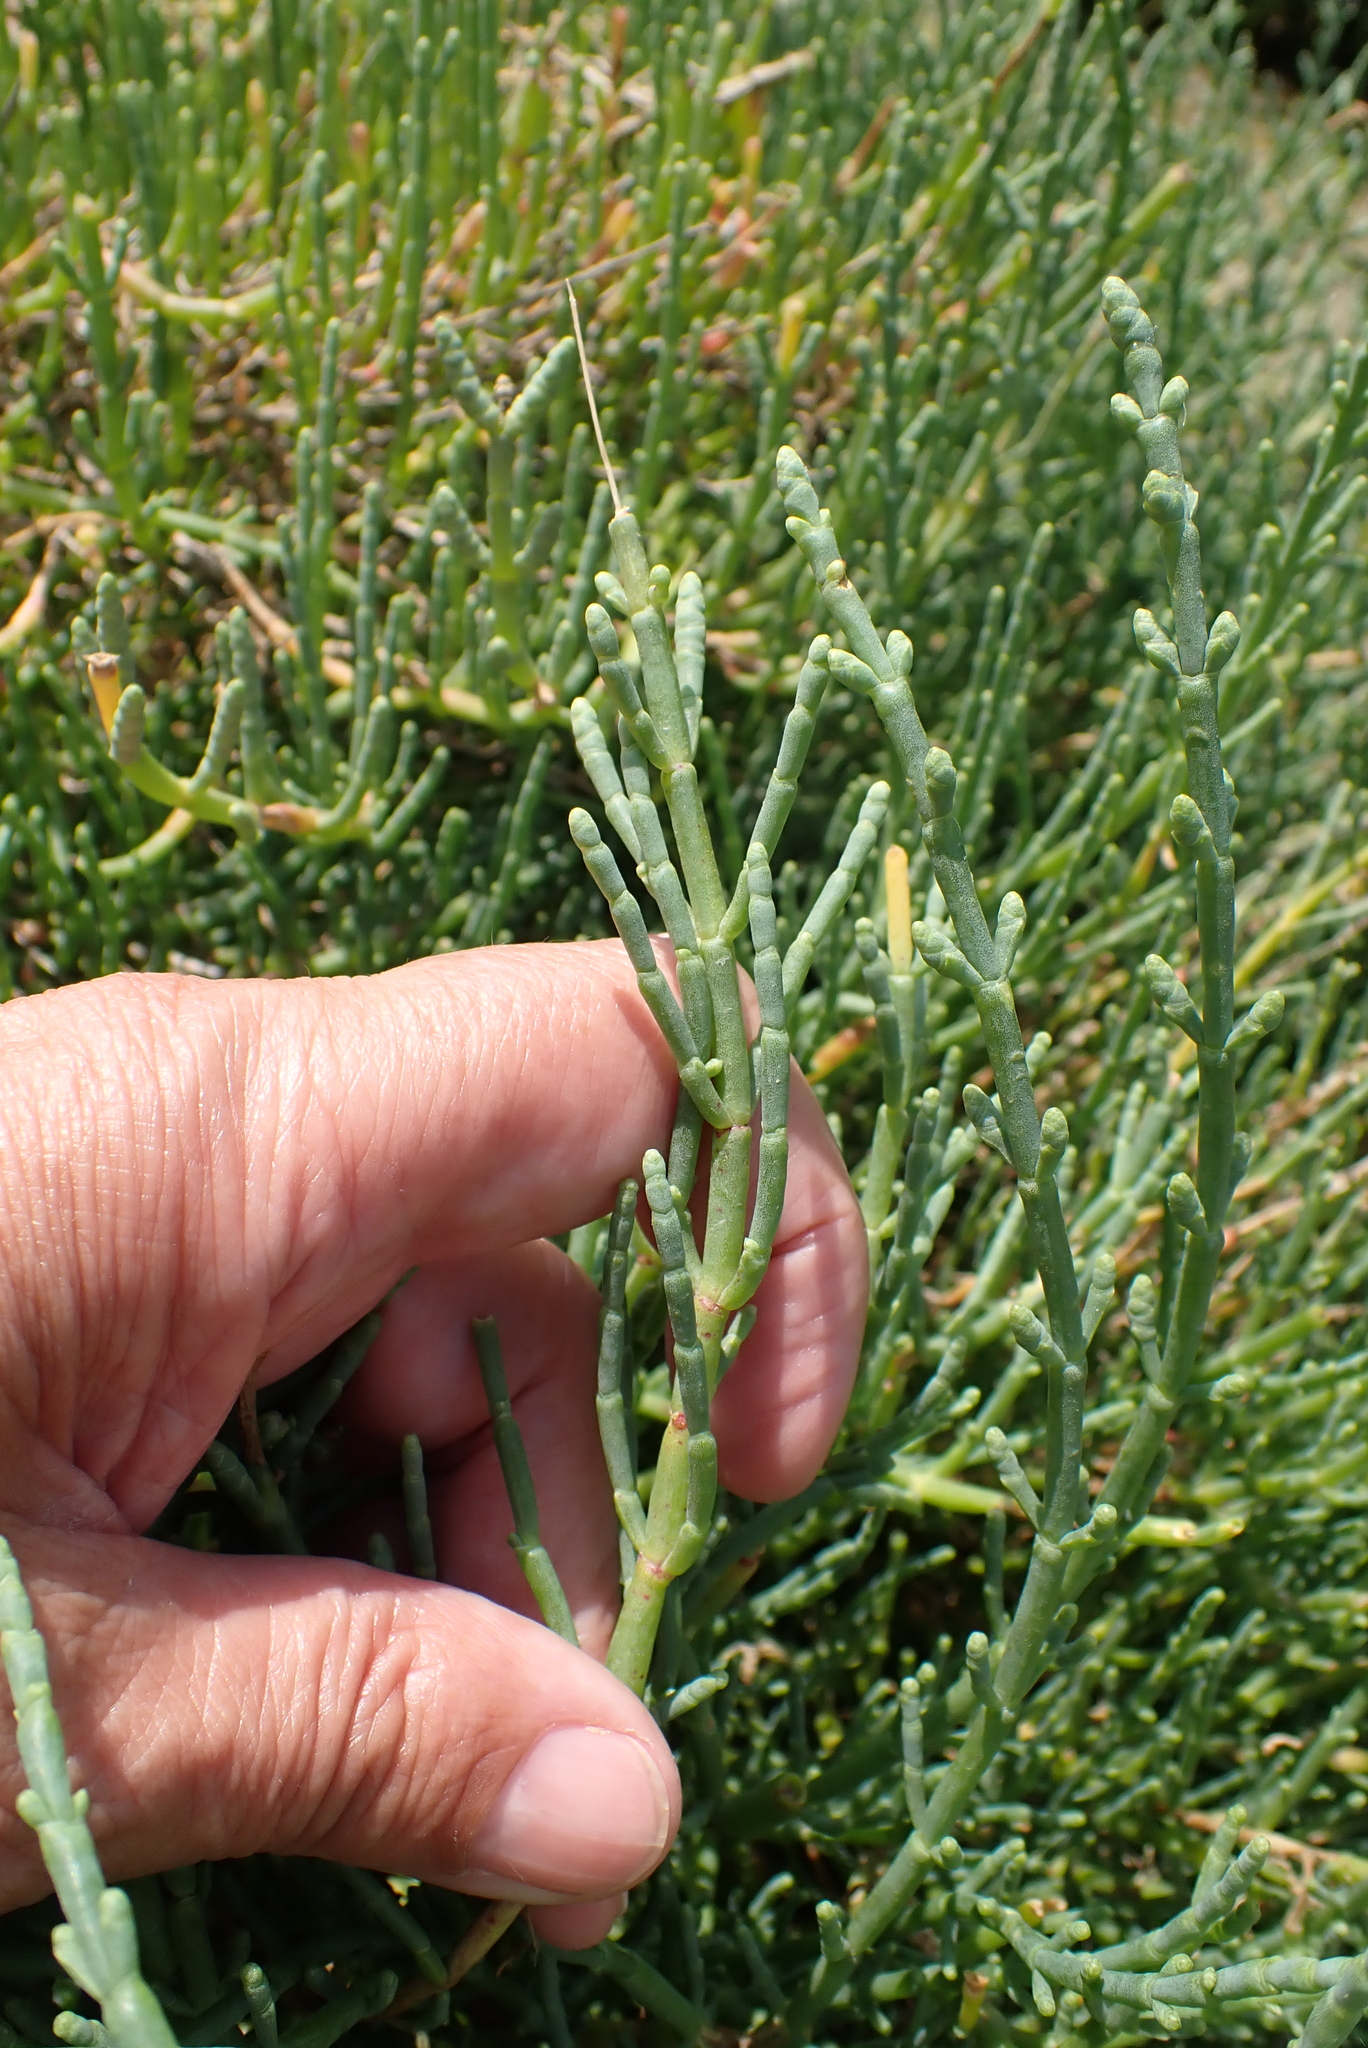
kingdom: Plantae
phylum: Tracheophyta
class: Magnoliopsida
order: Caryophyllales
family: Amaranthaceae
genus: Salicornia
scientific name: Salicornia fruticosa
